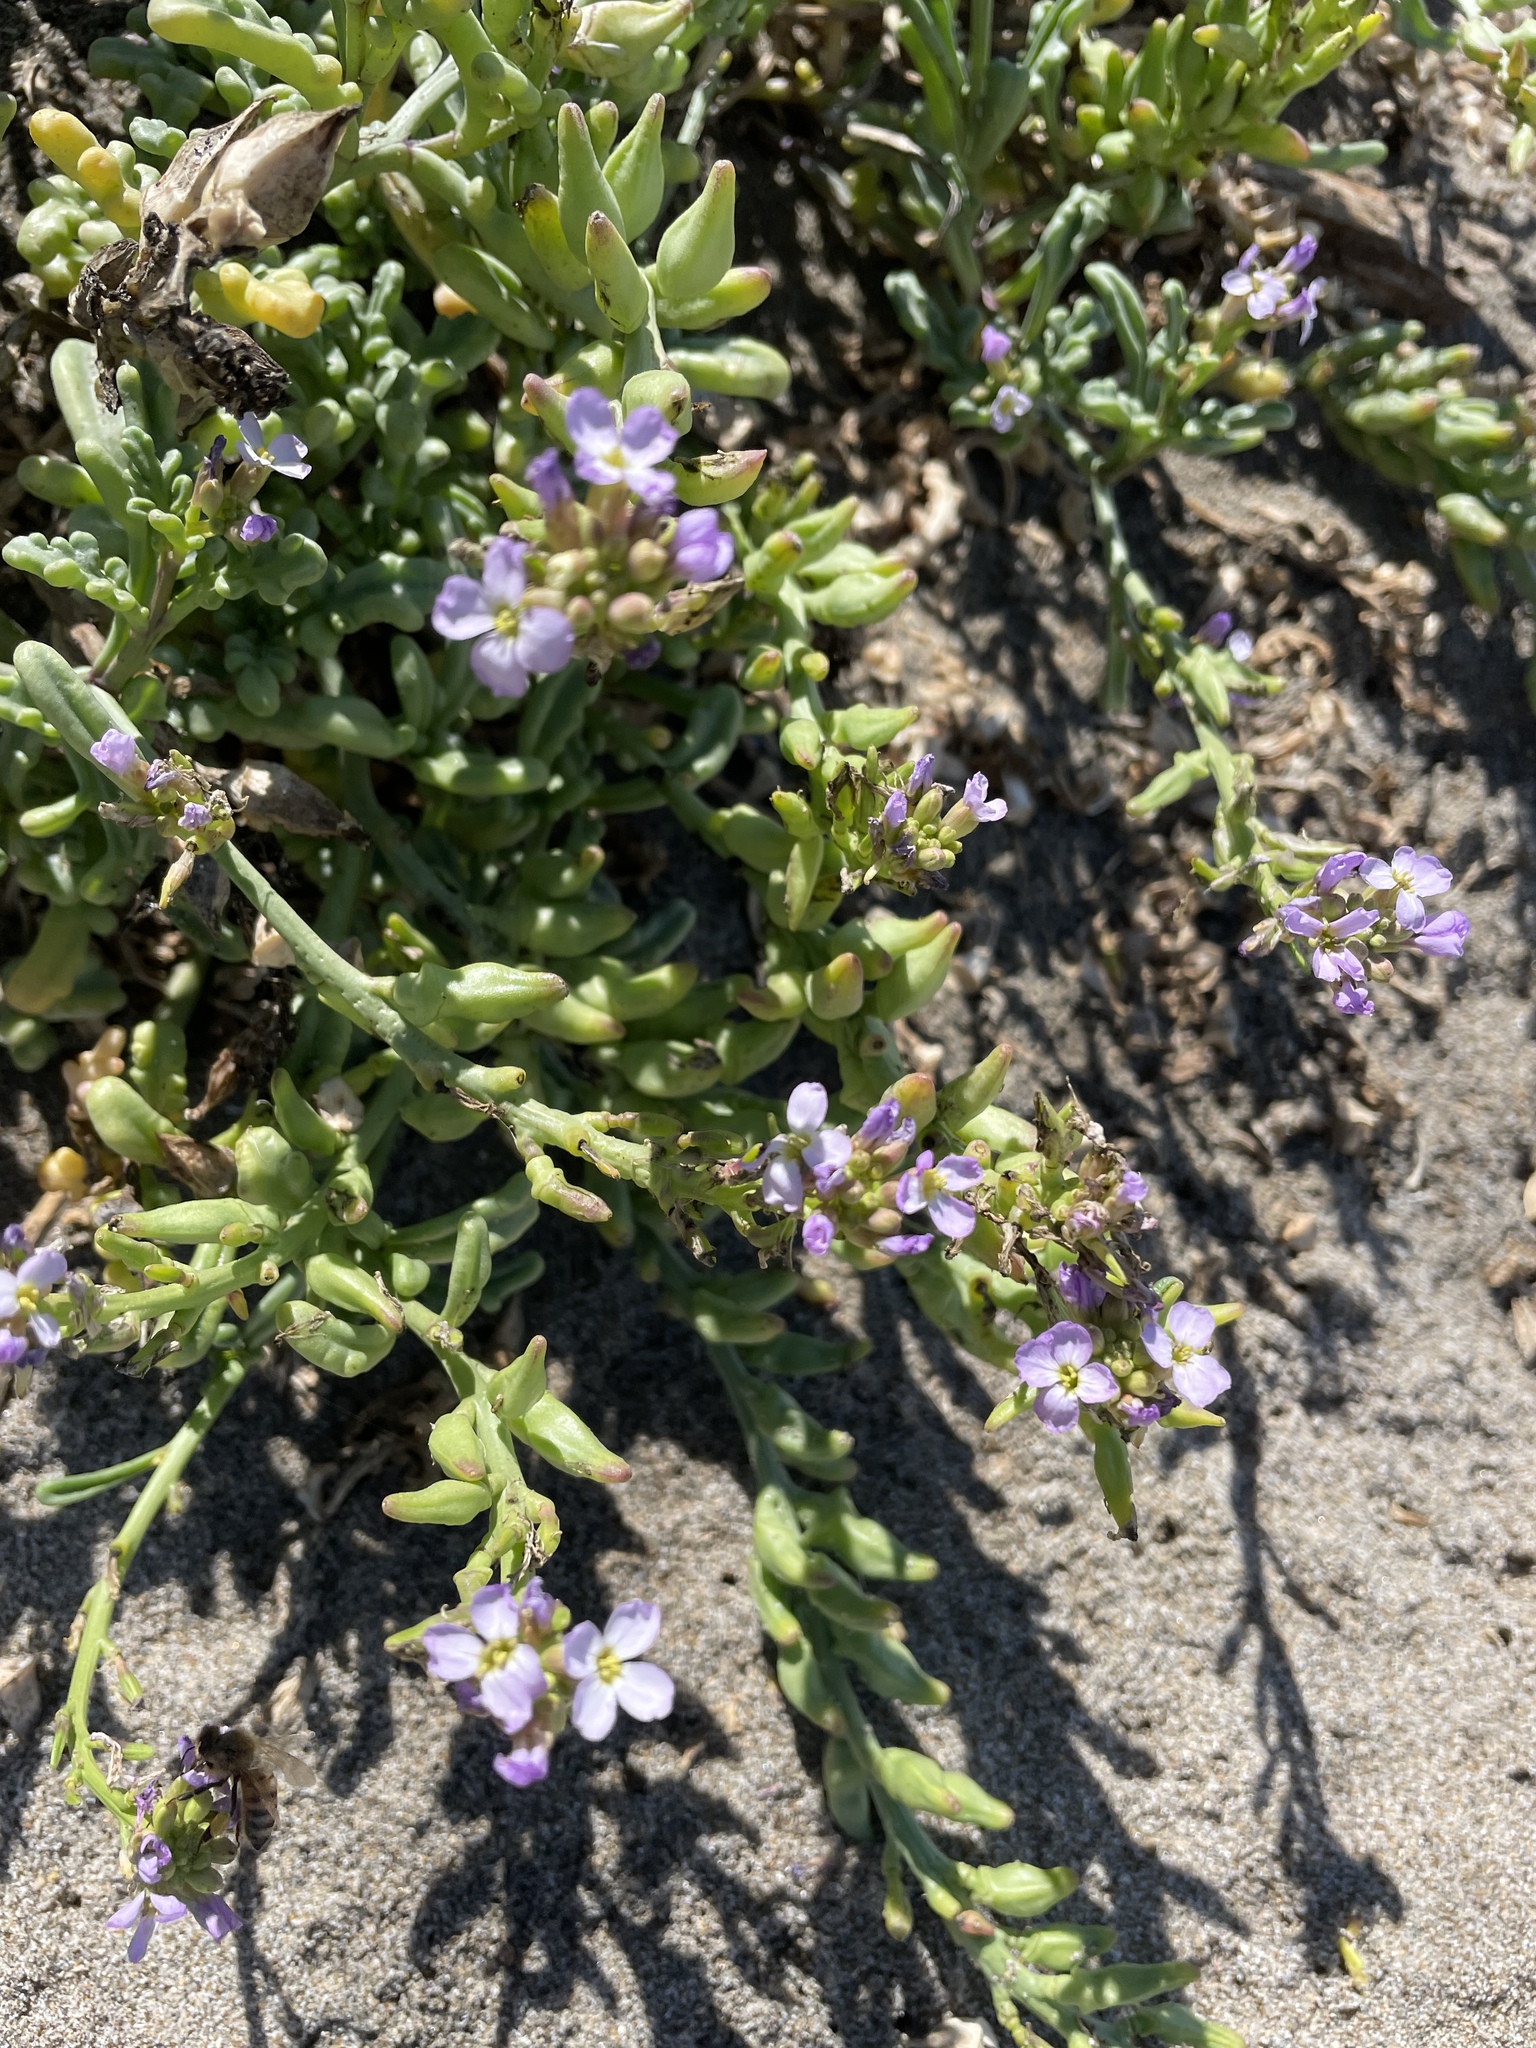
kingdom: Plantae
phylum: Tracheophyta
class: Magnoliopsida
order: Brassicales
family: Brassicaceae
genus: Cakile
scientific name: Cakile maritima
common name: Sea rocket
